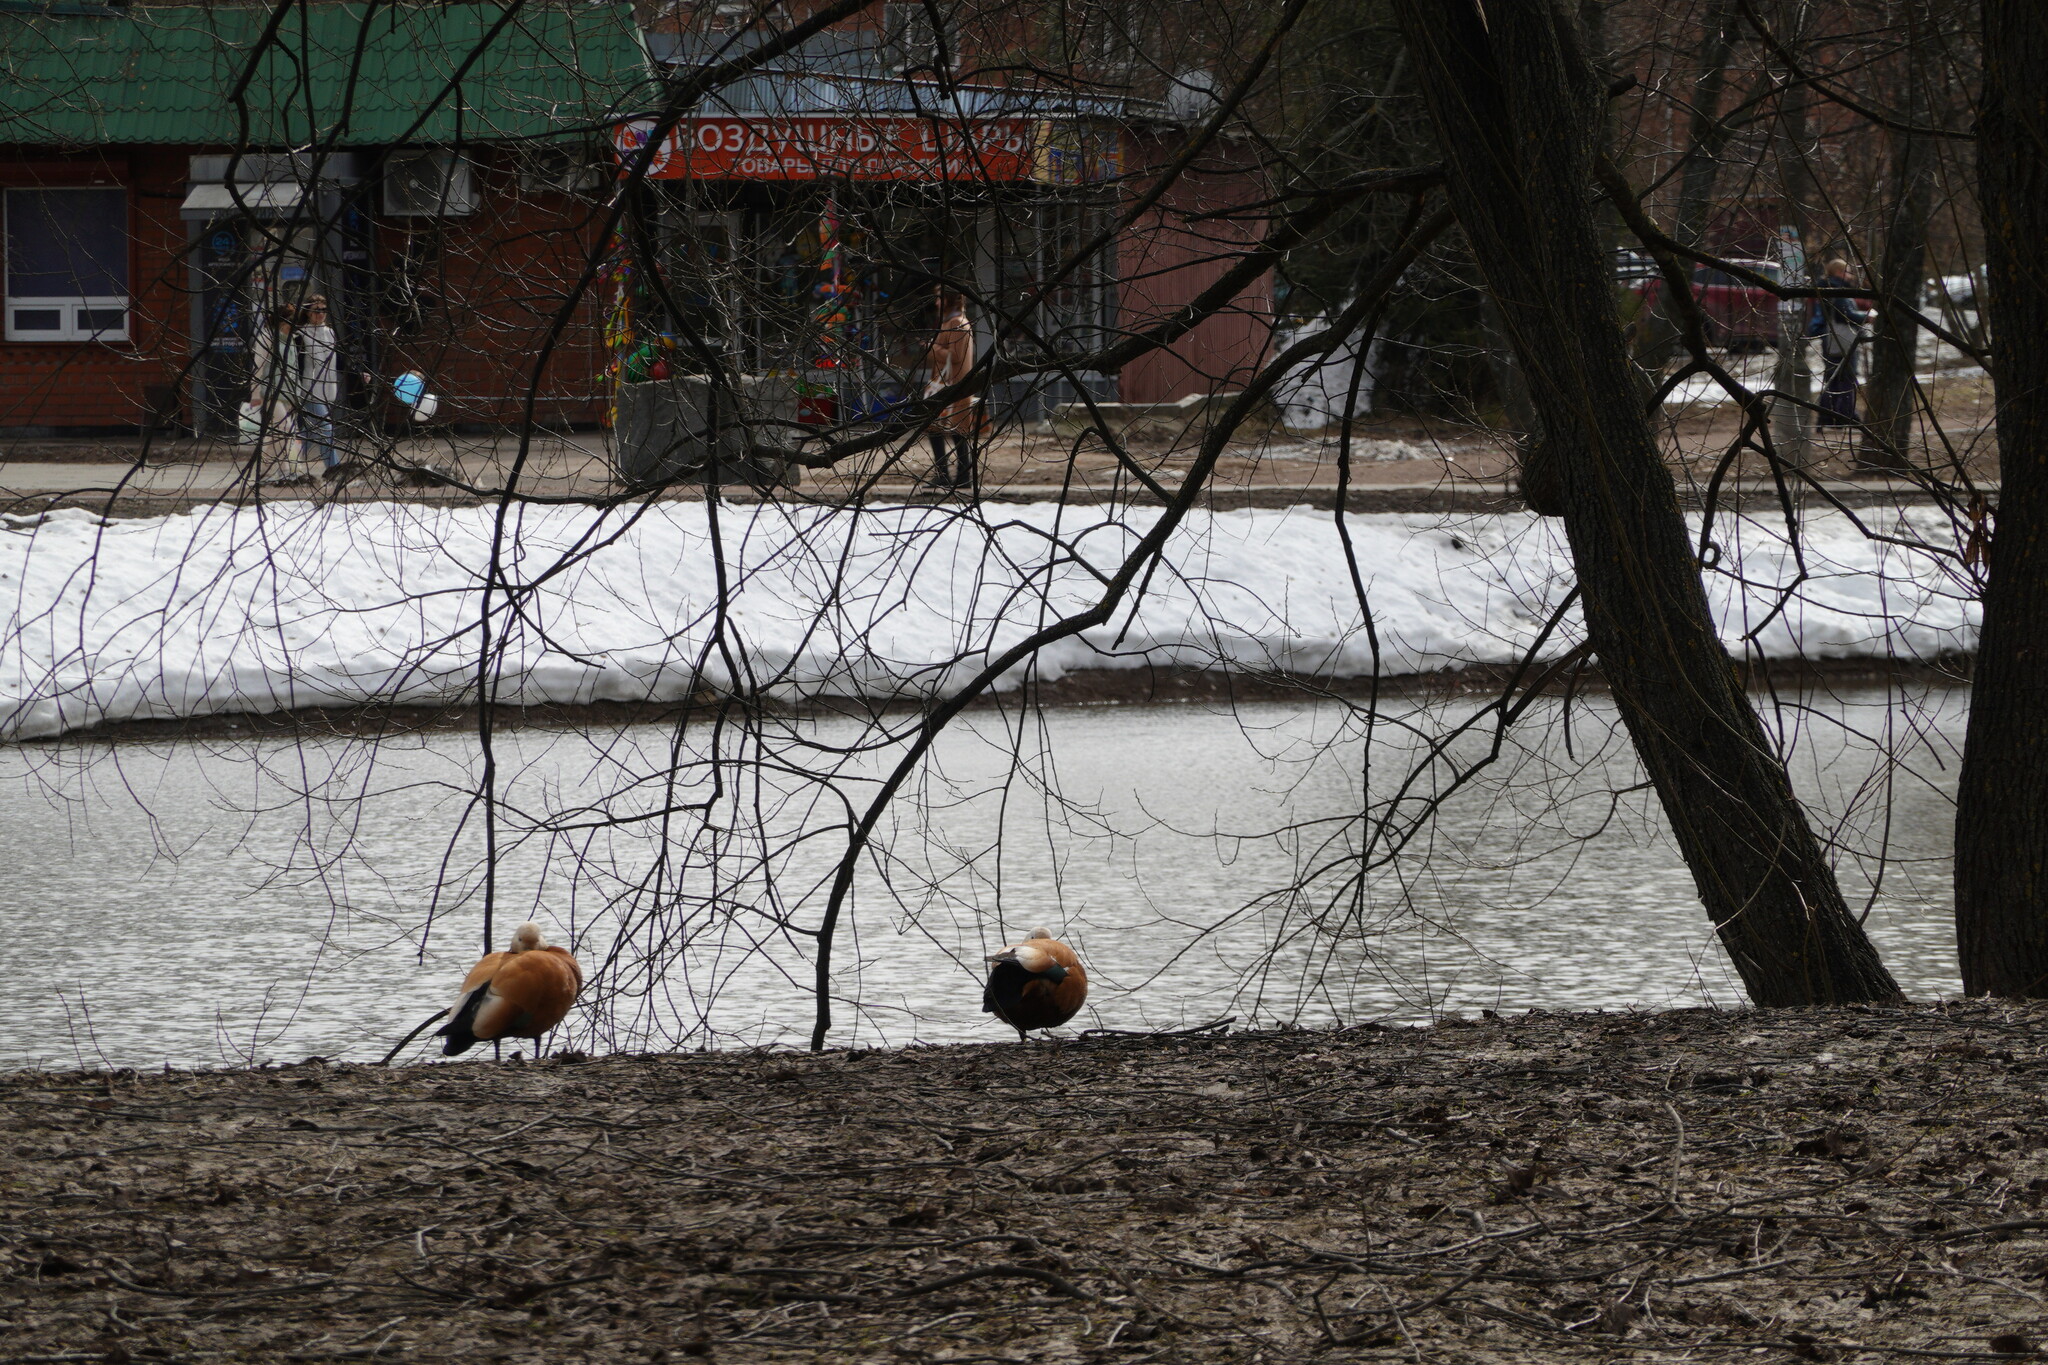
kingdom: Animalia
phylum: Chordata
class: Aves
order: Anseriformes
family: Anatidae
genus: Tadorna
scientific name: Tadorna ferruginea
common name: Ruddy shelduck
